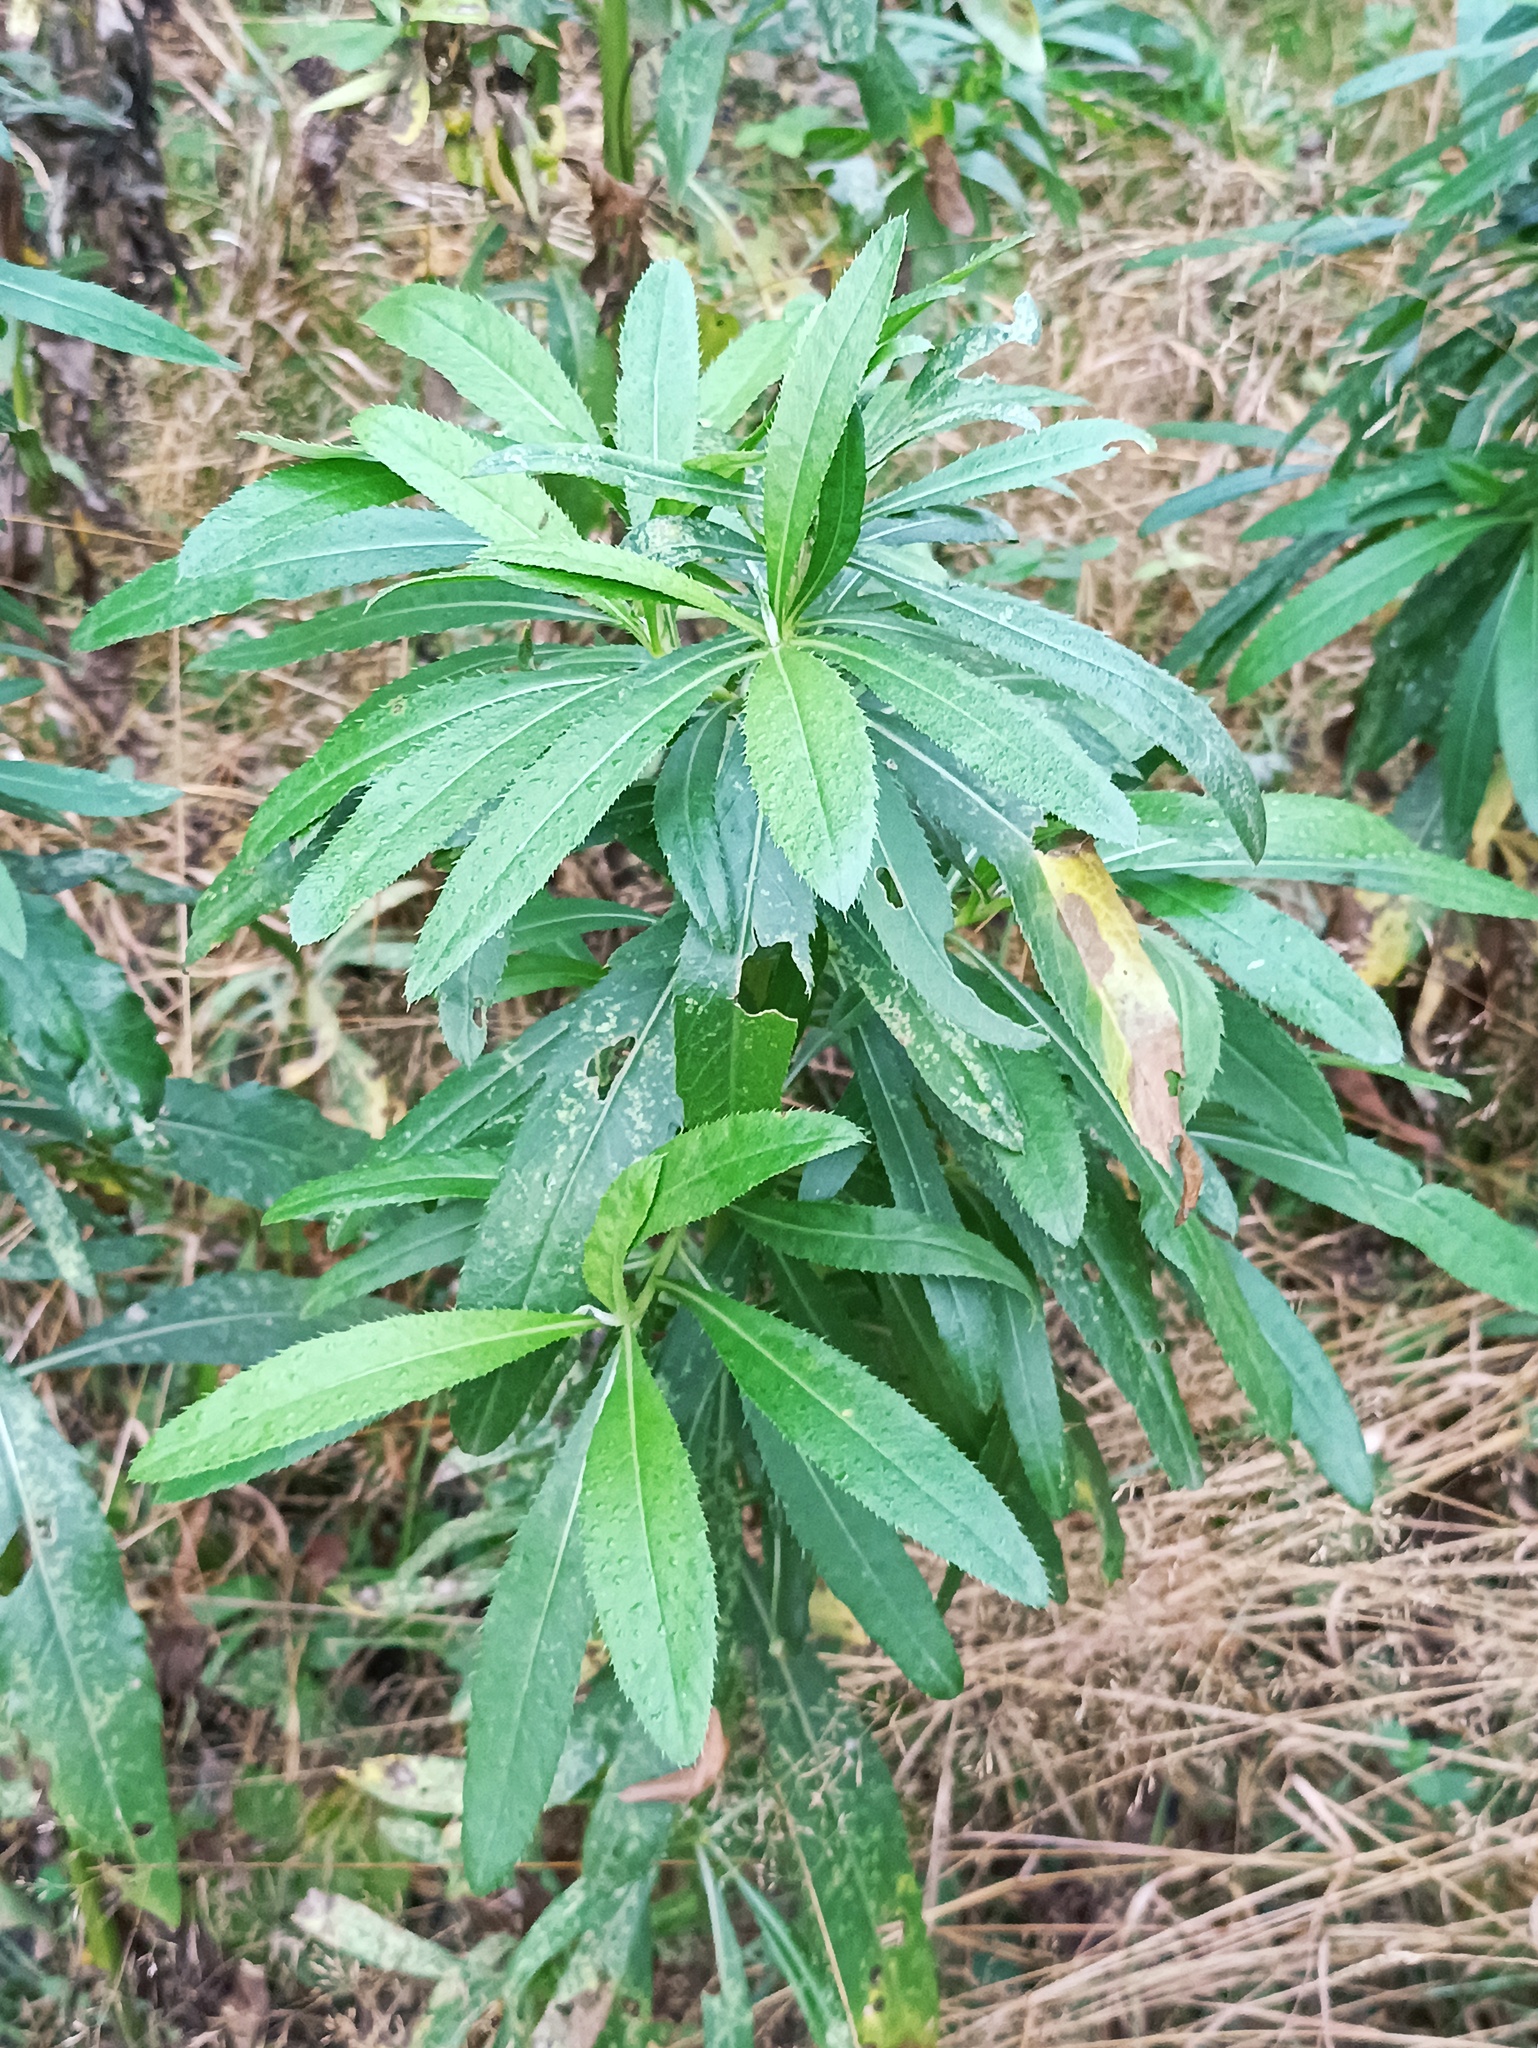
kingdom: Plantae
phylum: Tracheophyta
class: Magnoliopsida
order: Asterales
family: Asteraceae
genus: Cirsium
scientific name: Cirsium arvense
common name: Creeping thistle
